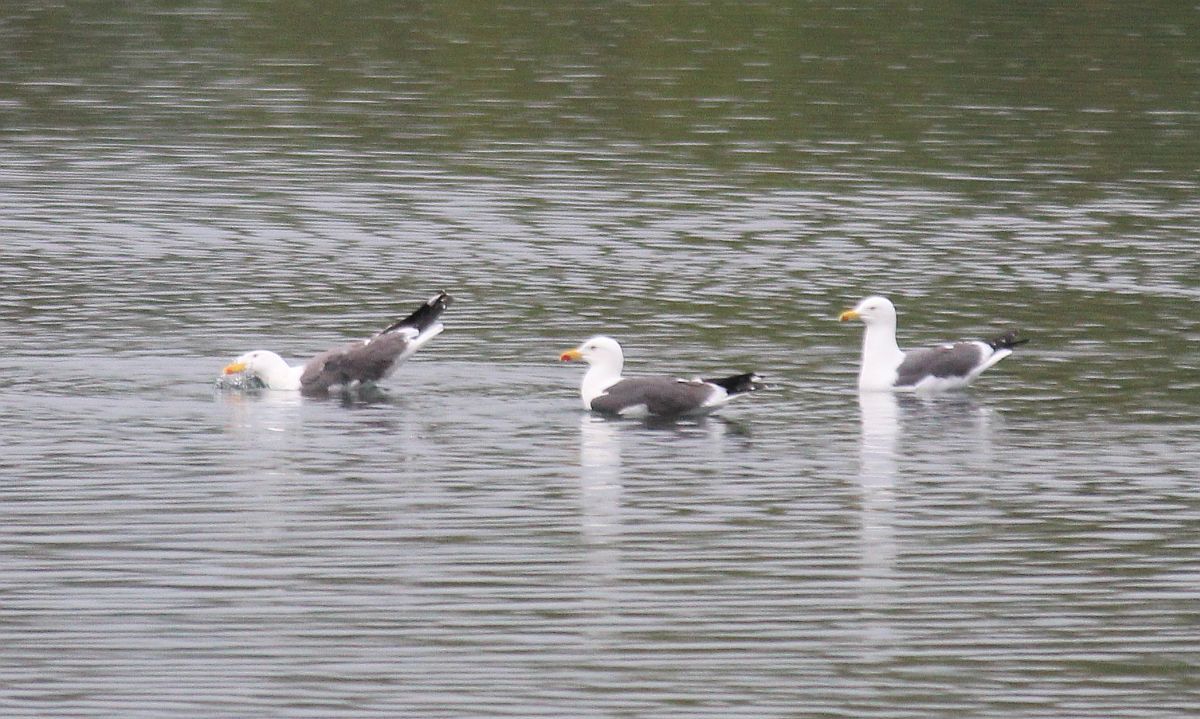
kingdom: Animalia
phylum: Chordata
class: Aves
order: Charadriiformes
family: Laridae
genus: Larus
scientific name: Larus fuscus
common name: Lesser black-backed gull
